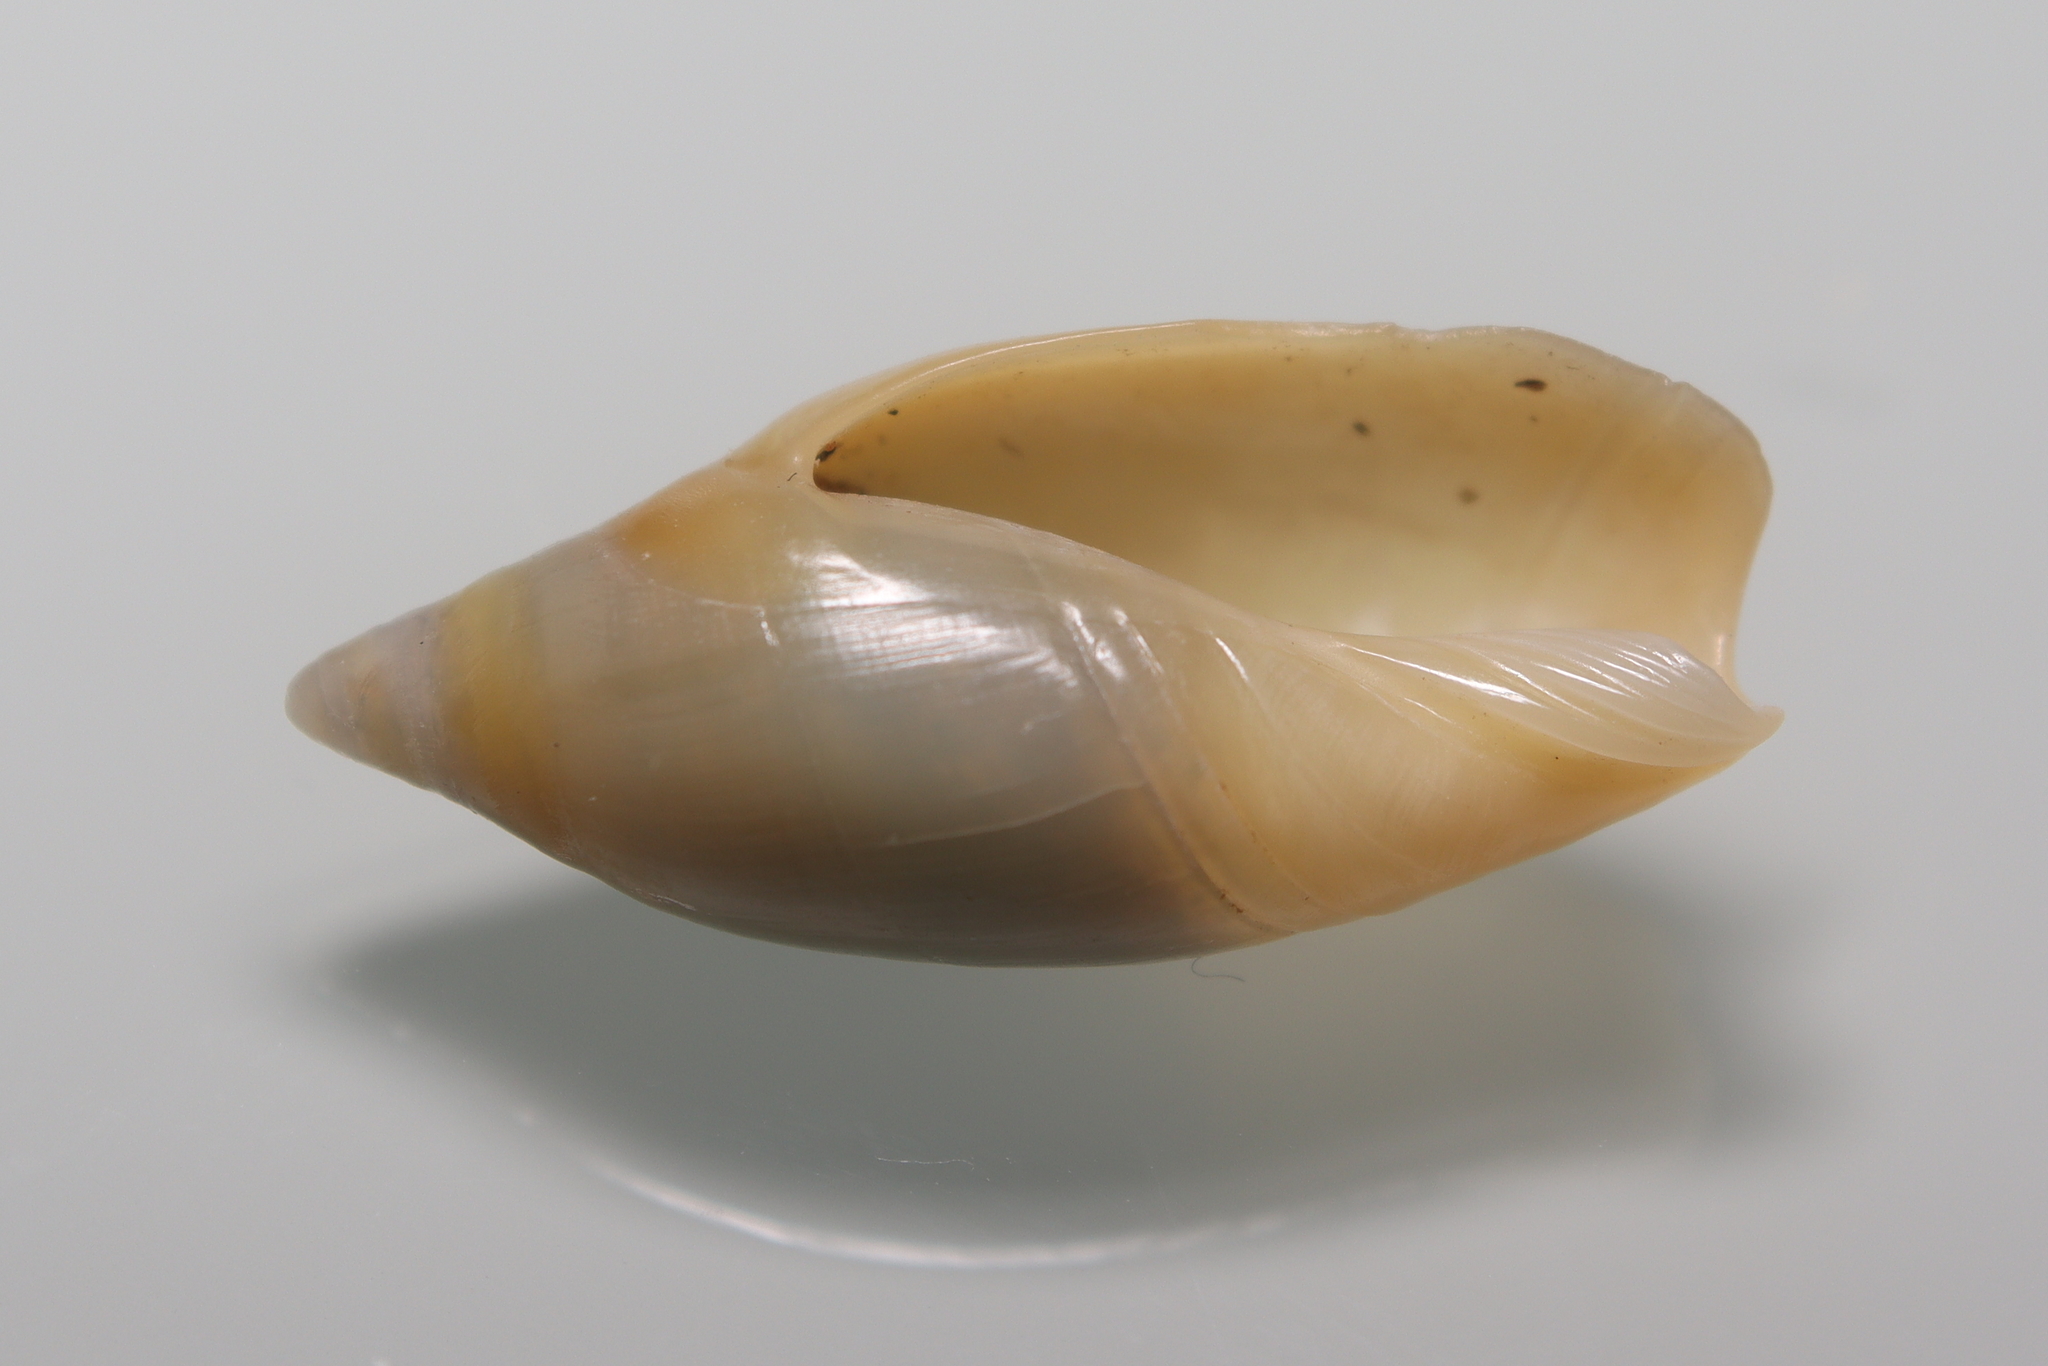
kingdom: Animalia
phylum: Mollusca
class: Gastropoda
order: Neogastropoda
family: Ancillariidae
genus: Amalda
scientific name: Amalda josecarlosi
